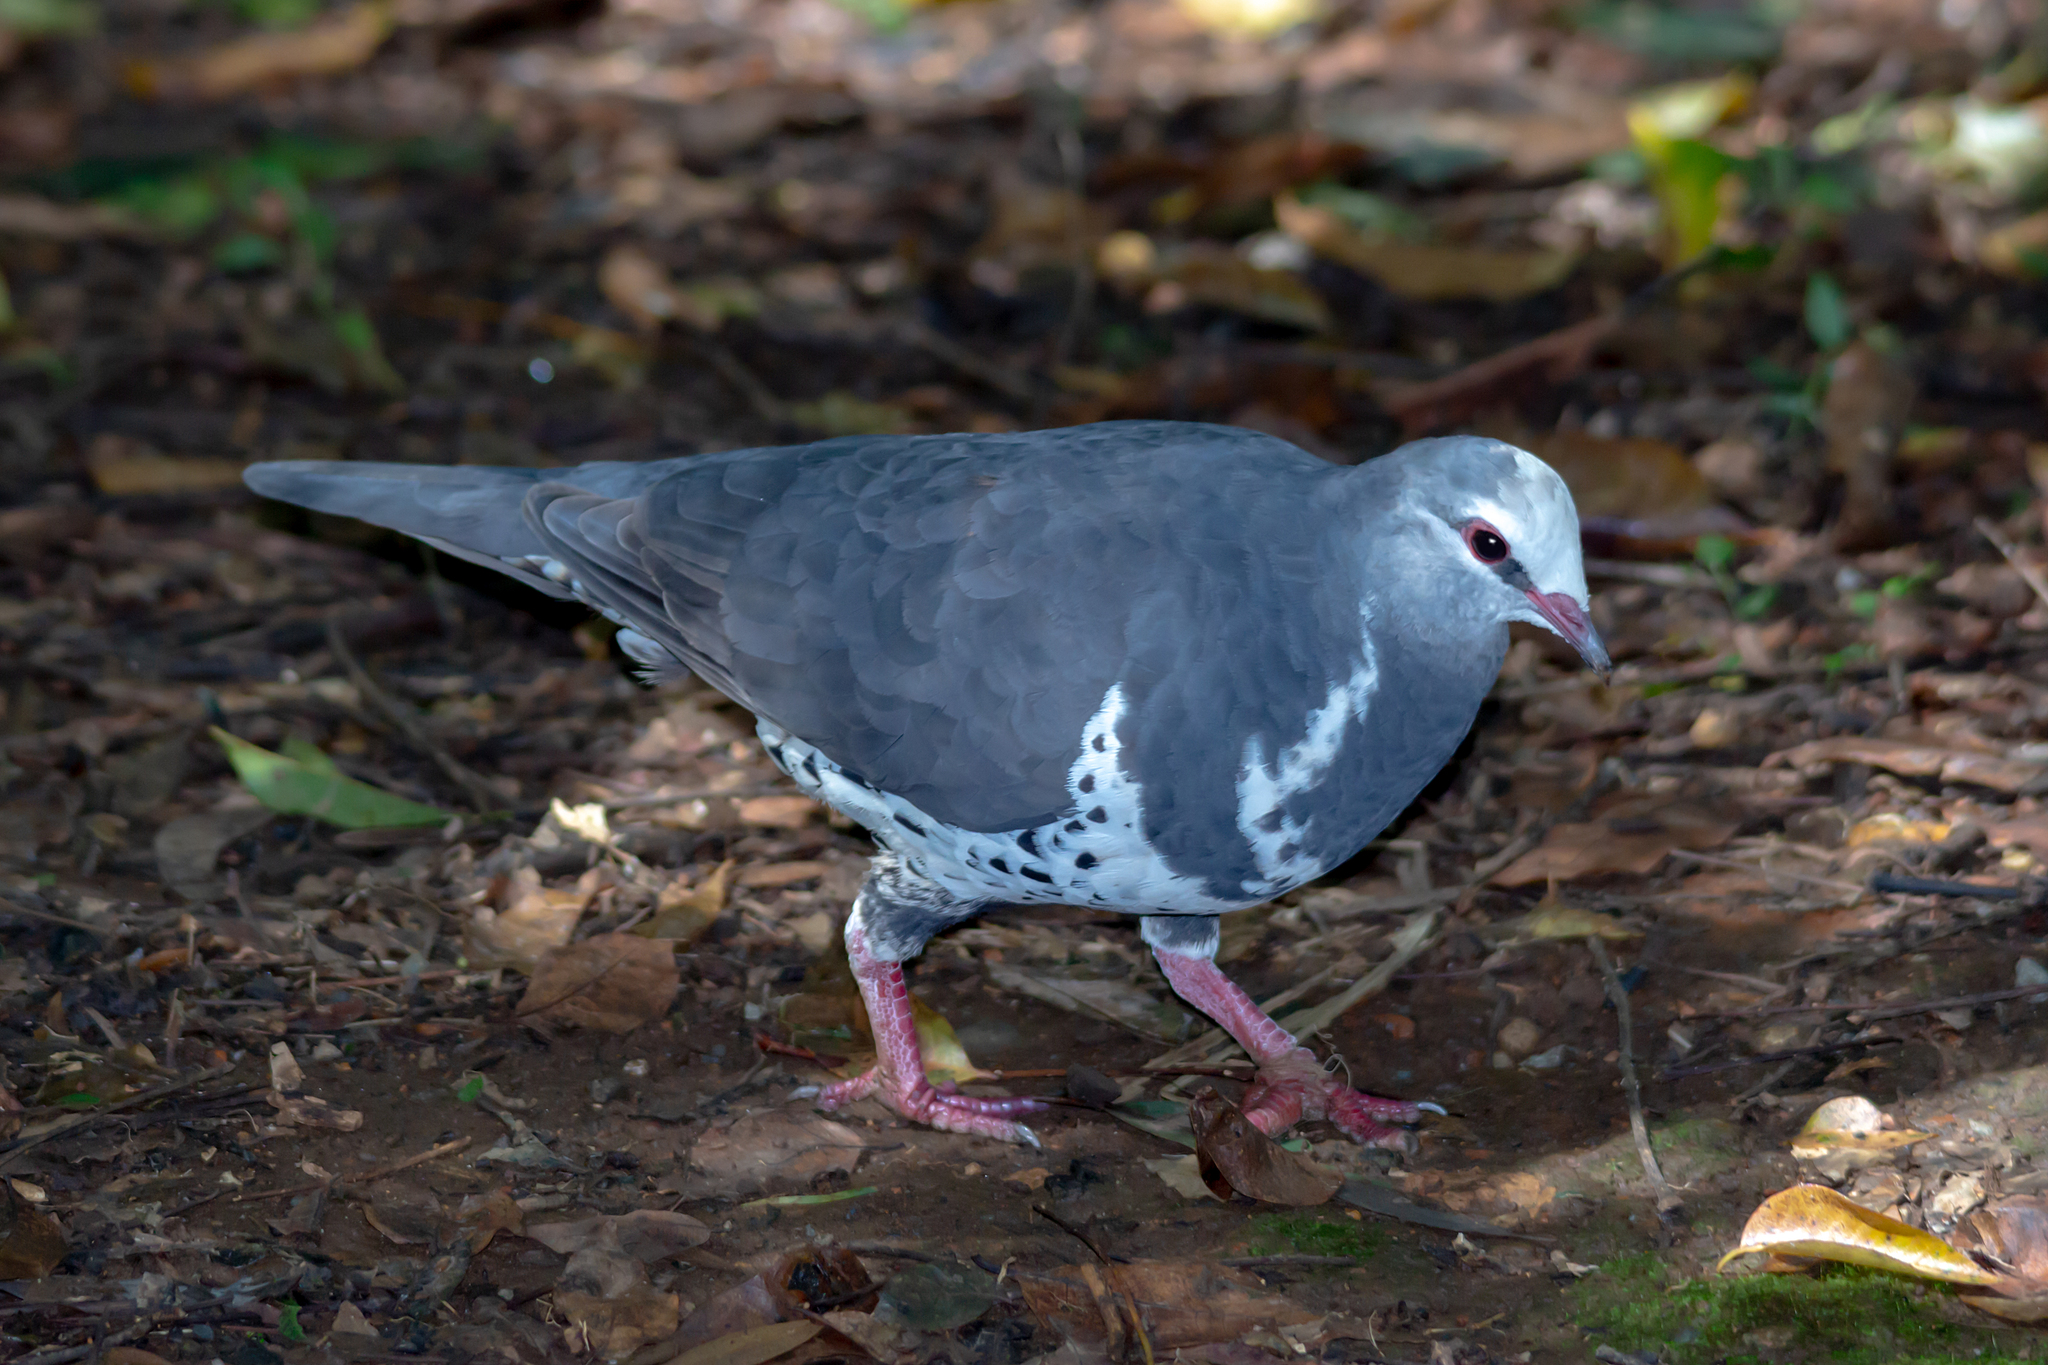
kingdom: Animalia
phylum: Chordata
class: Aves
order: Columbiformes
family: Columbidae
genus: Leucosarcia
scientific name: Leucosarcia melanoleuca
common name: Wonga pigeon
